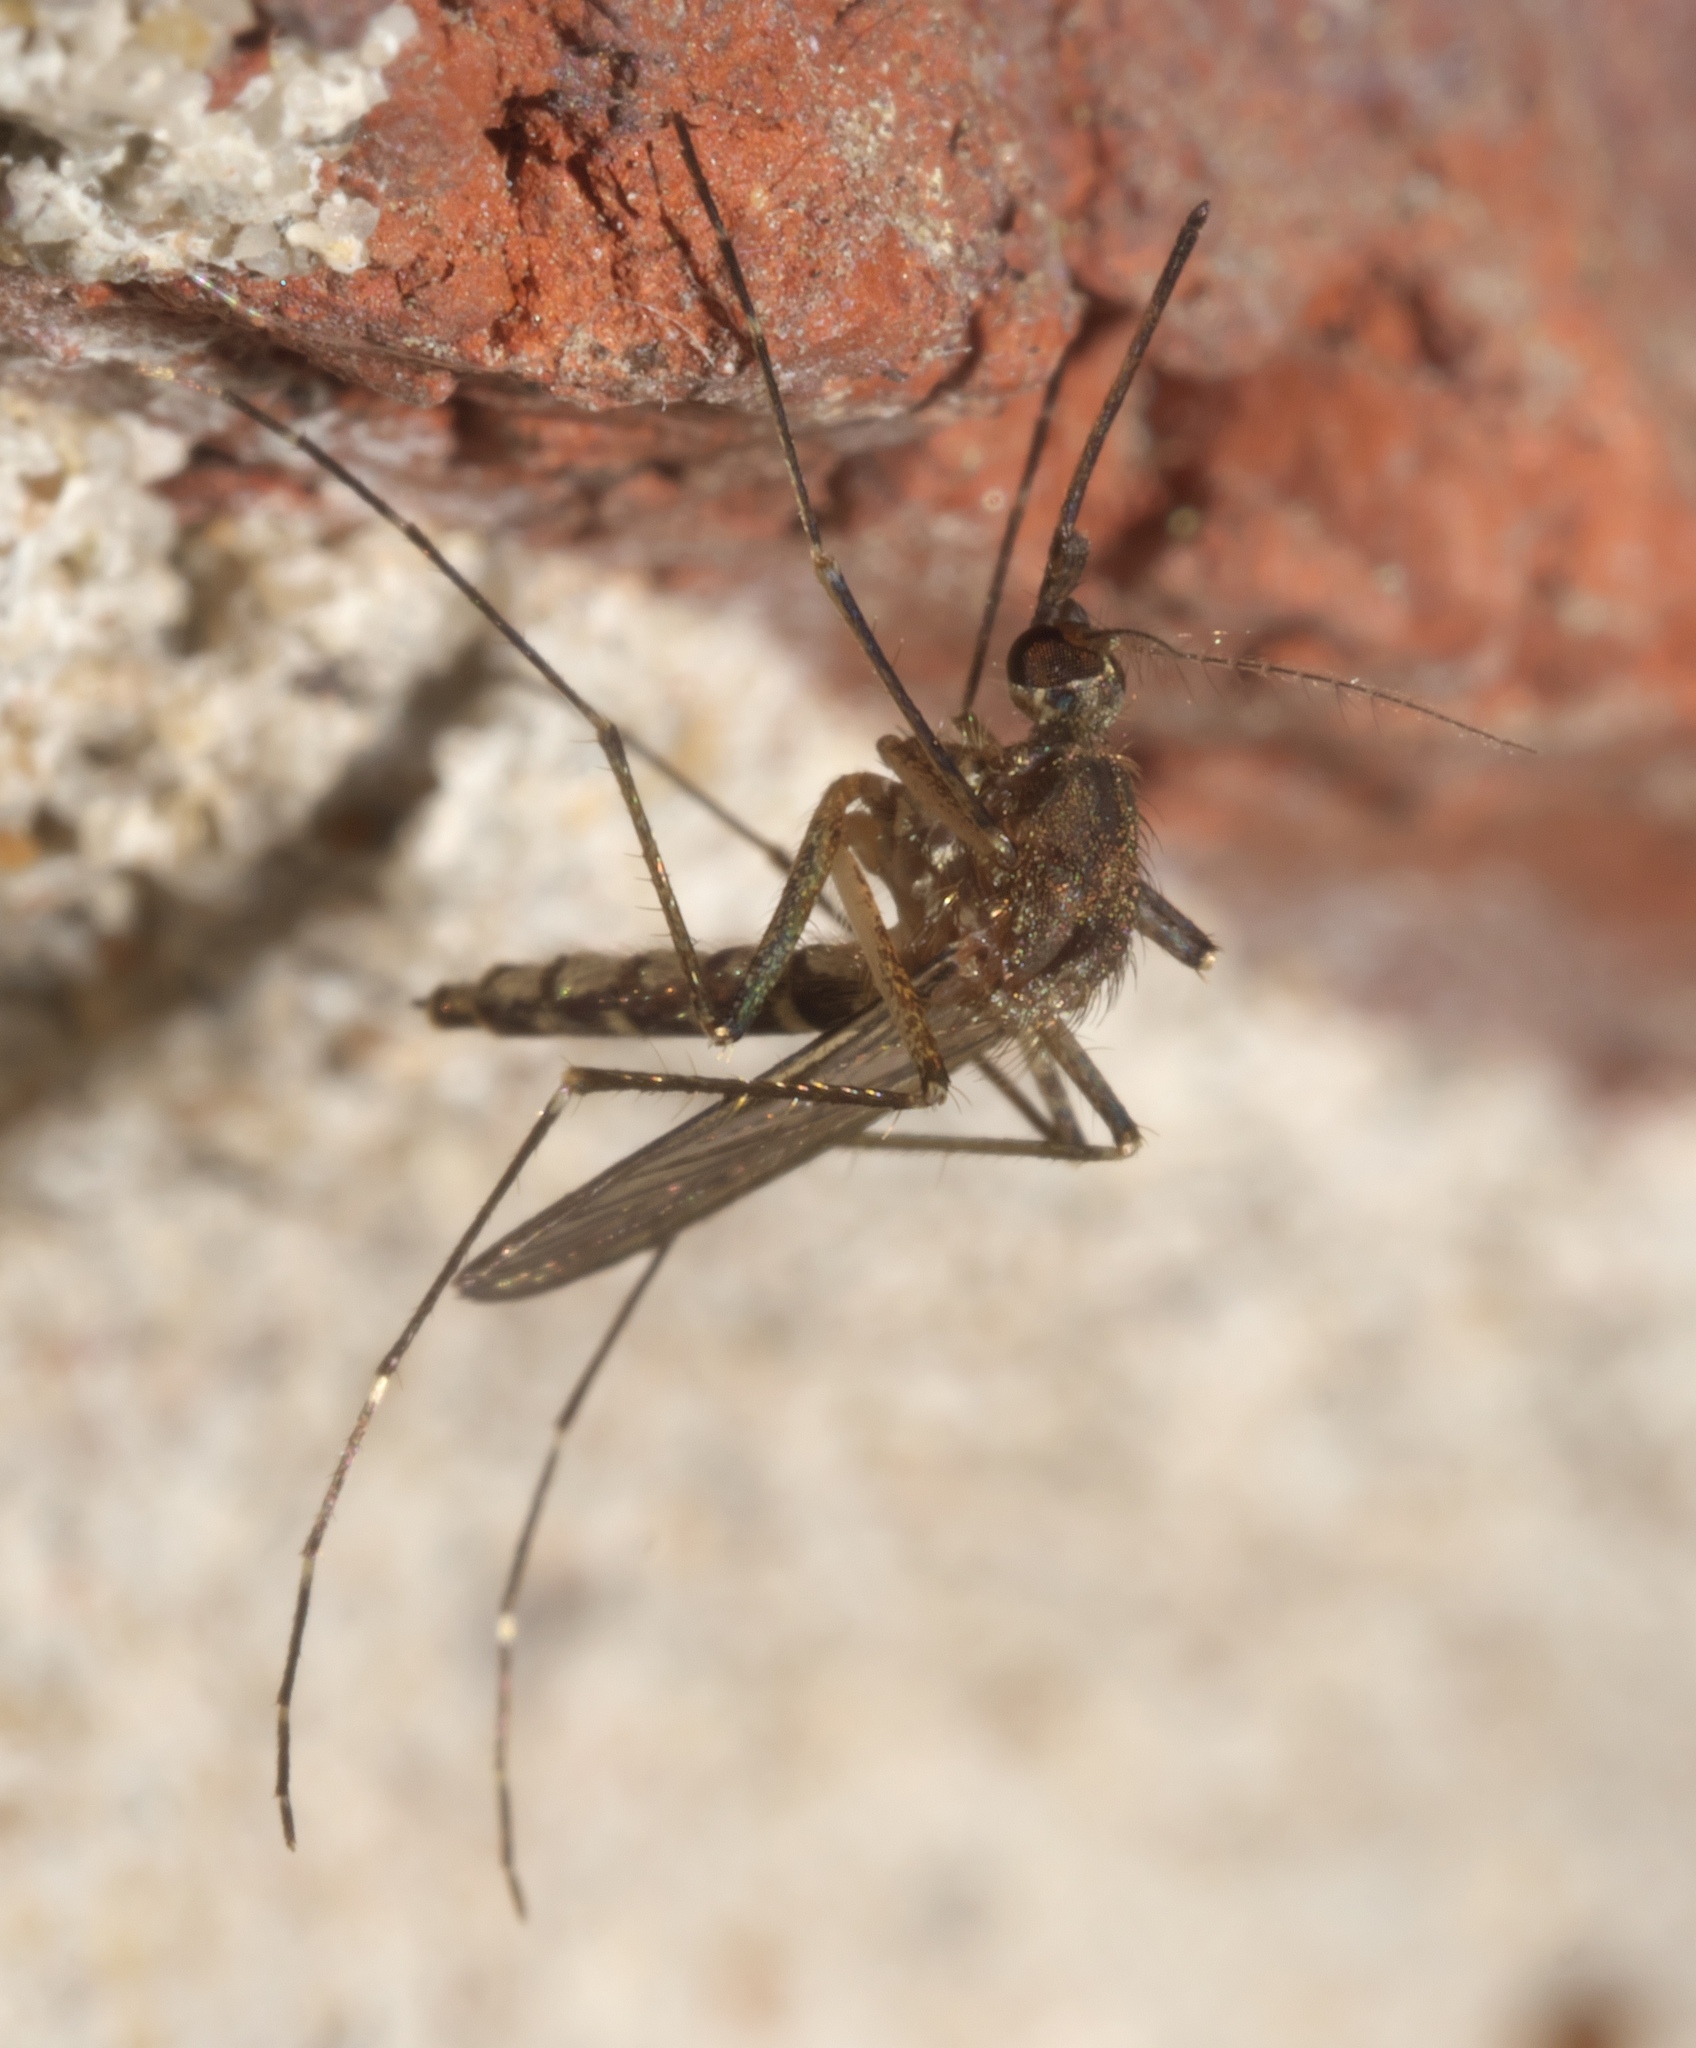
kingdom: Animalia
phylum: Arthropoda
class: Insecta
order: Diptera
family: Culicidae
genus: Aedes
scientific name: Aedes vexans
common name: Inland floodwater mosquito
